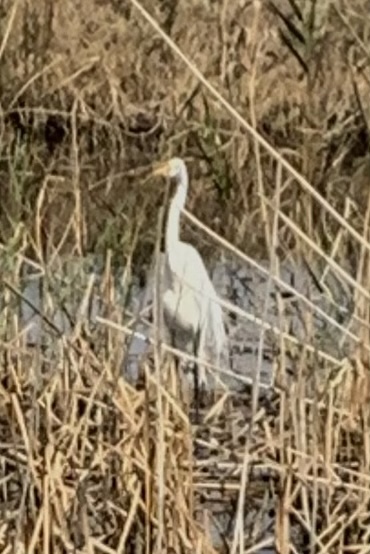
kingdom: Animalia
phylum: Chordata
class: Aves
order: Pelecaniformes
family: Ardeidae
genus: Ardea
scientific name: Ardea alba
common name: Great egret
